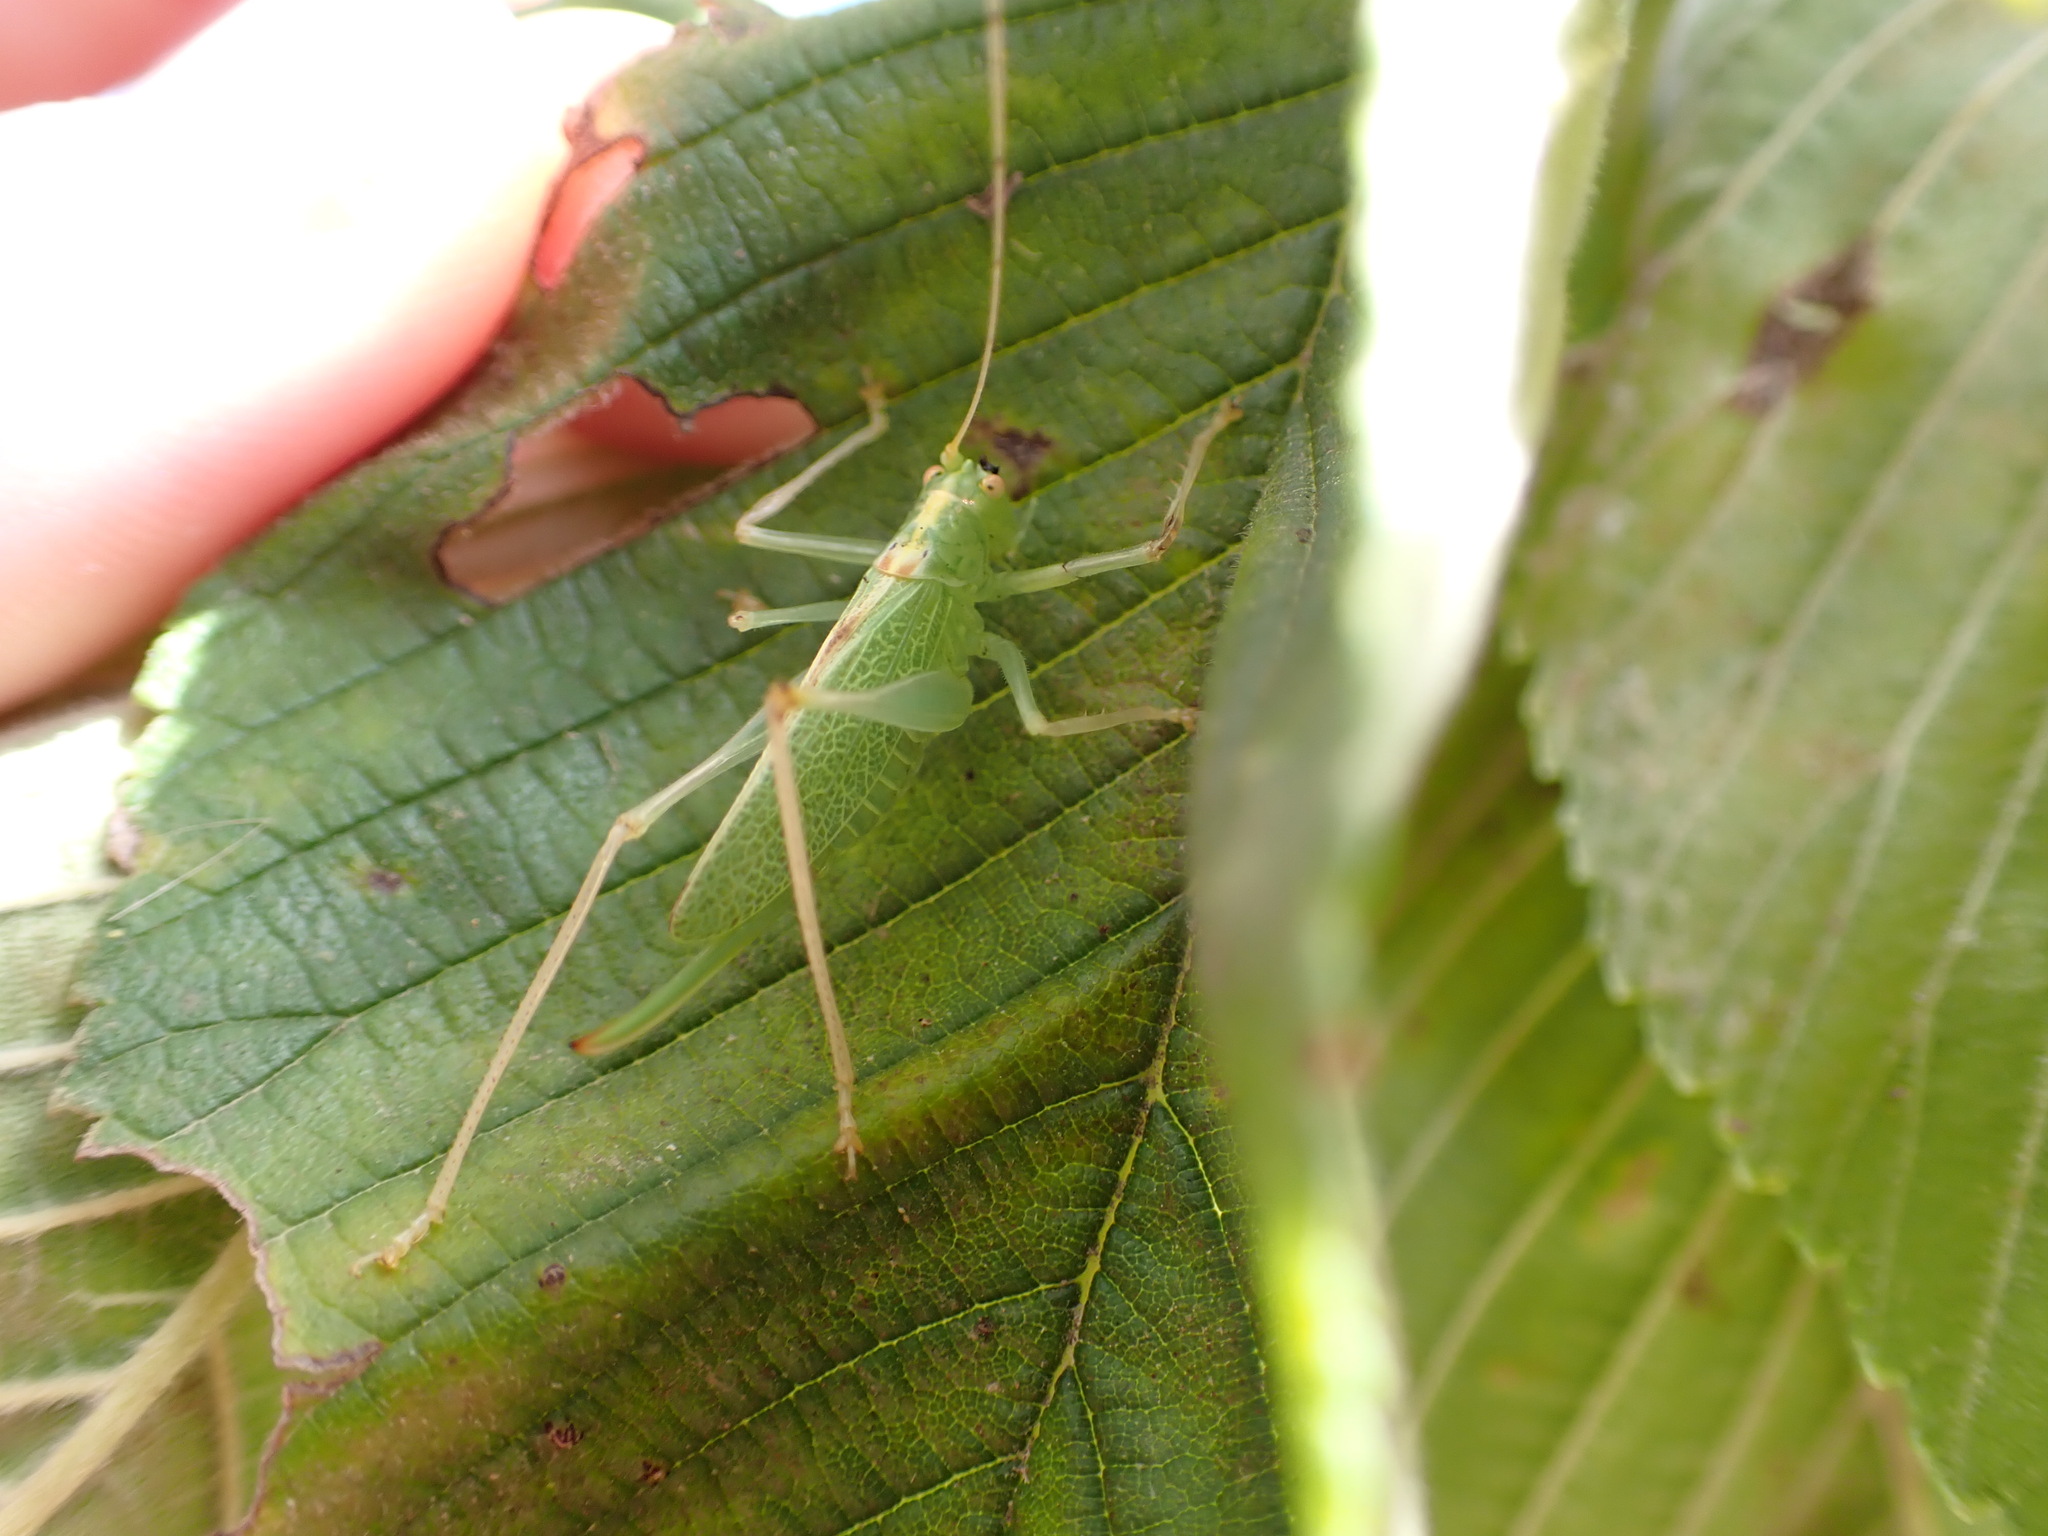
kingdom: Animalia
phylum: Arthropoda
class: Insecta
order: Orthoptera
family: Tettigoniidae
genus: Meconema
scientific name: Meconema thalassinum
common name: Oak bush-cricket
